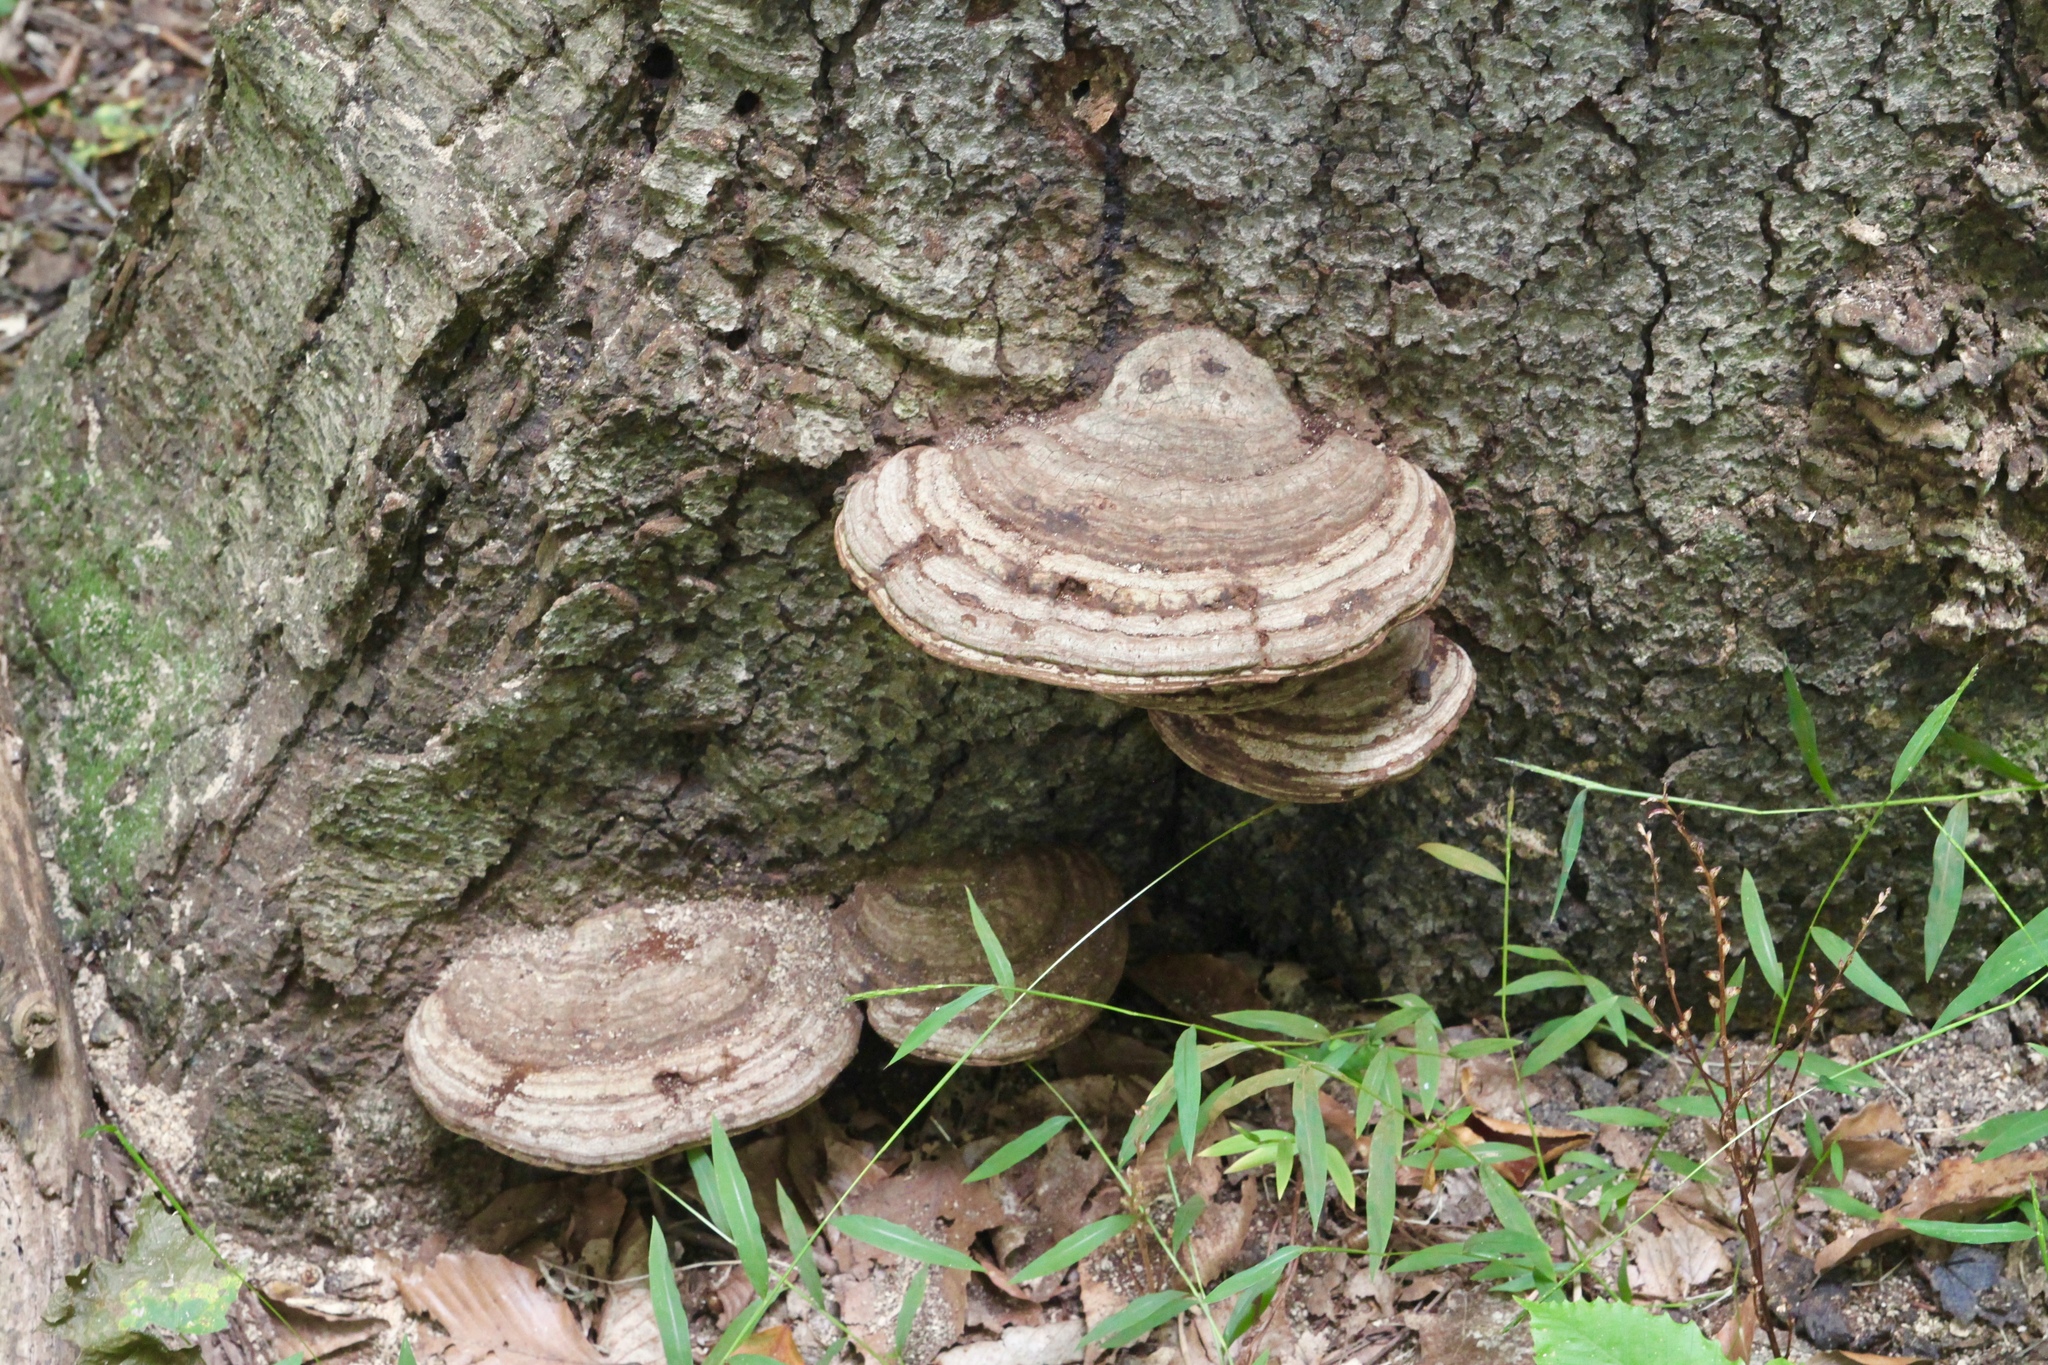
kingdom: Fungi
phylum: Basidiomycota
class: Agaricomycetes
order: Polyporales
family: Polyporaceae
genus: Ganoderma
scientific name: Ganoderma applanatum
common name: Artist's bracket
